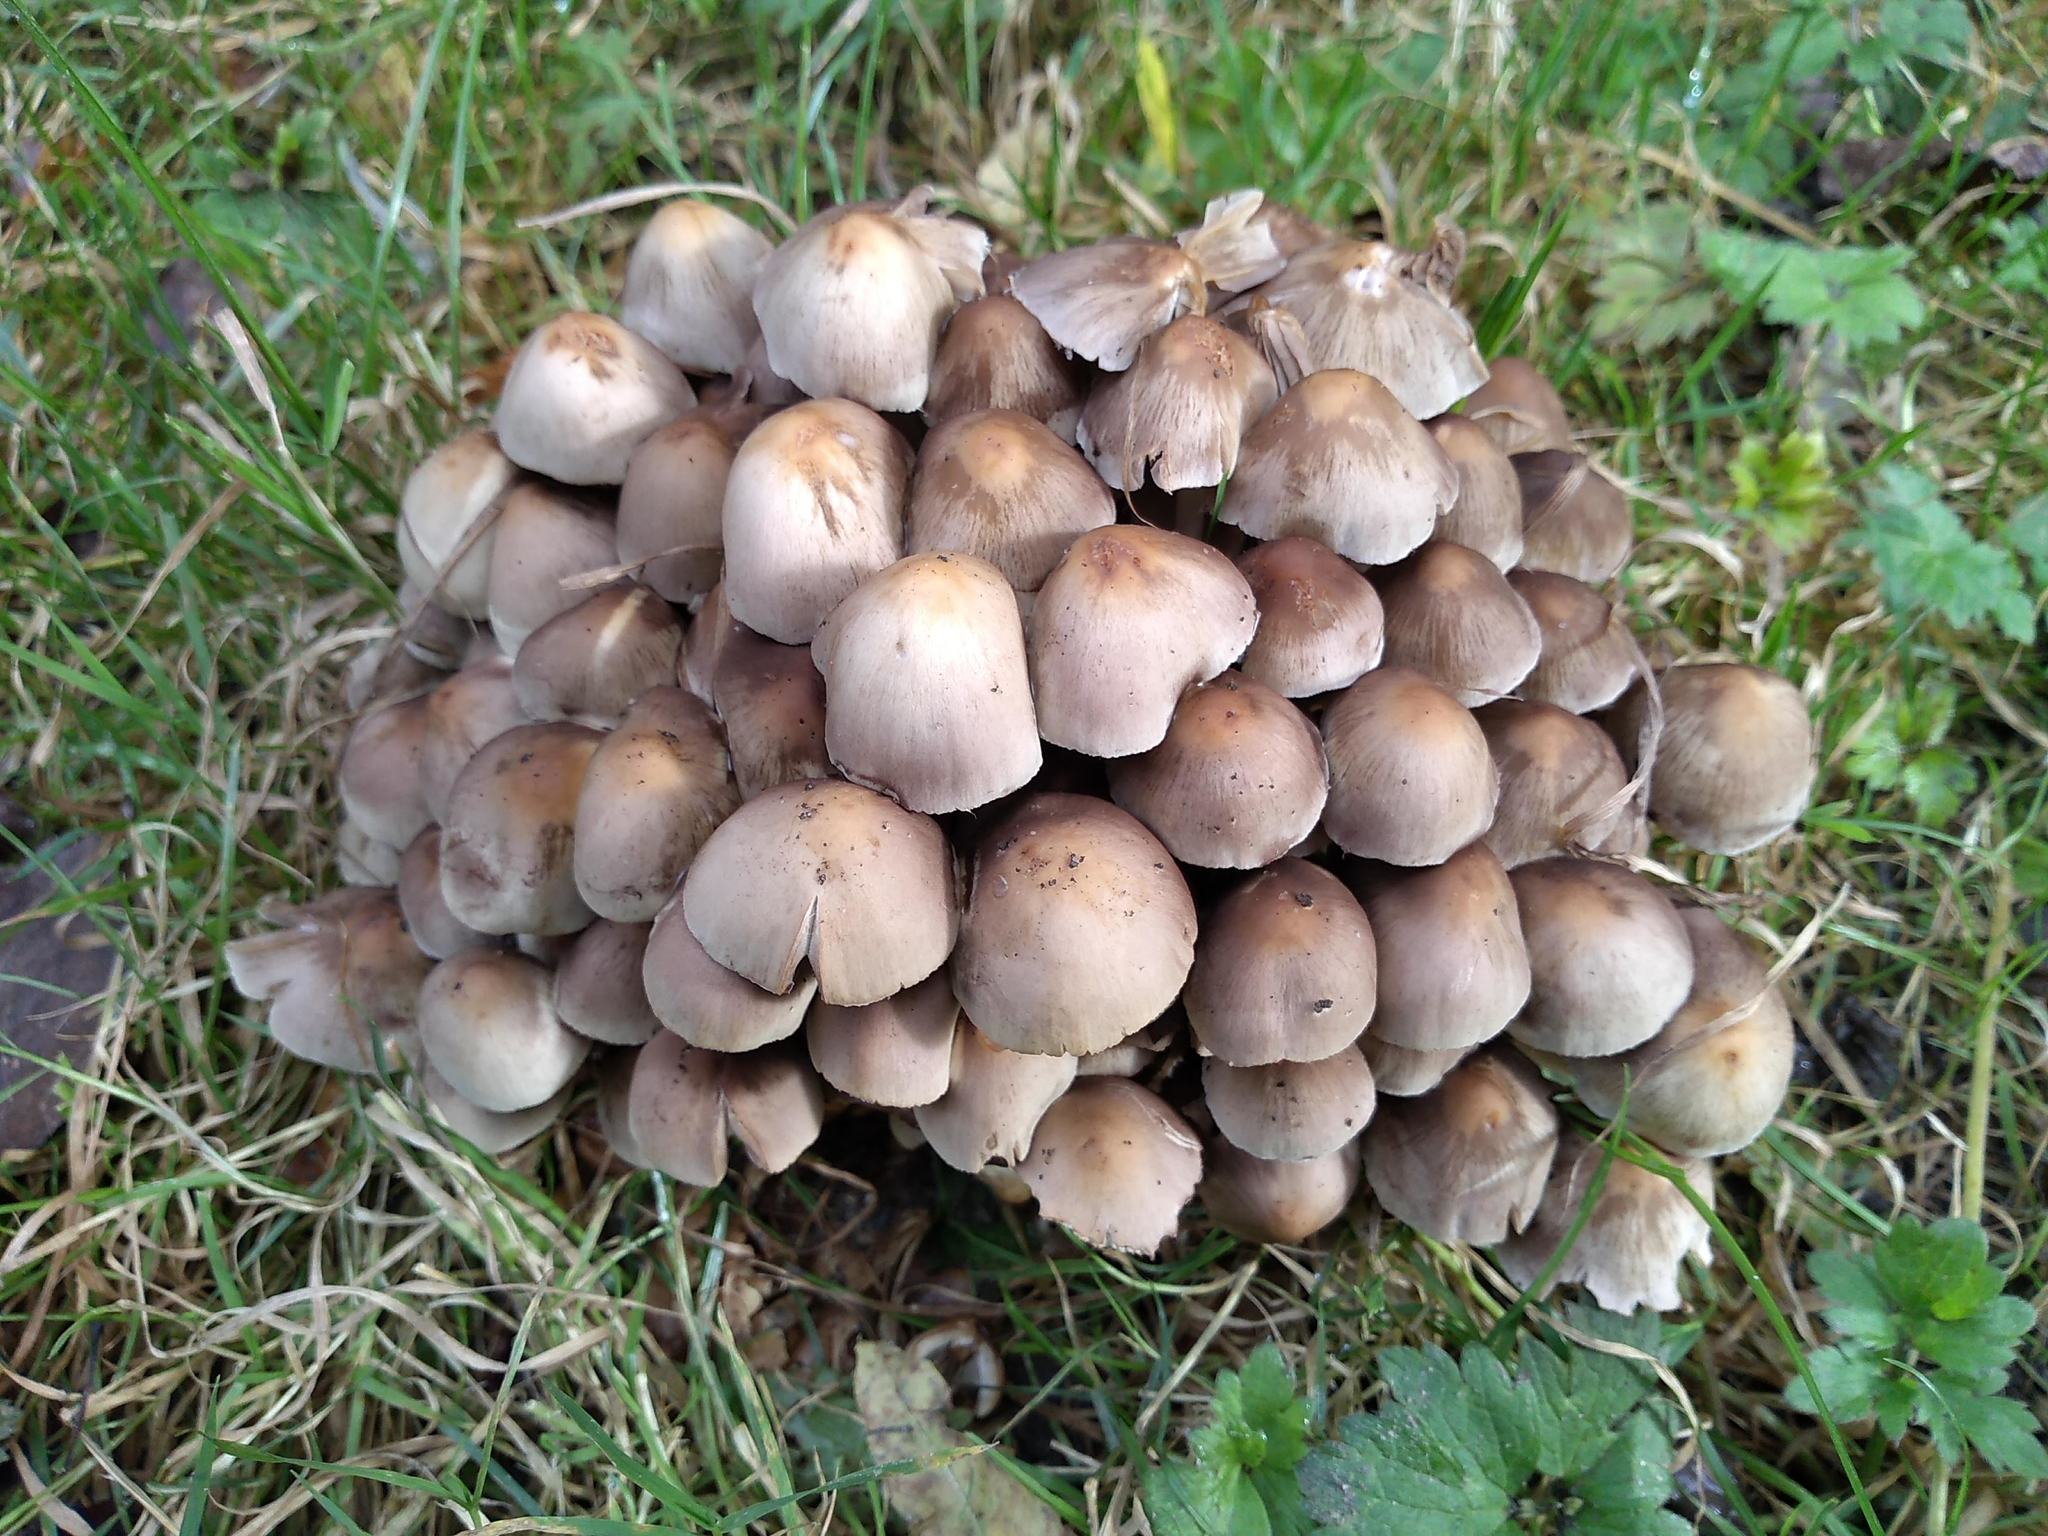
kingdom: Fungi
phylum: Basidiomycota
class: Agaricomycetes
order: Agaricales
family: Psathyrellaceae
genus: Britzelmayria
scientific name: Britzelmayria multipedata
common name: Clustered brittlestem
